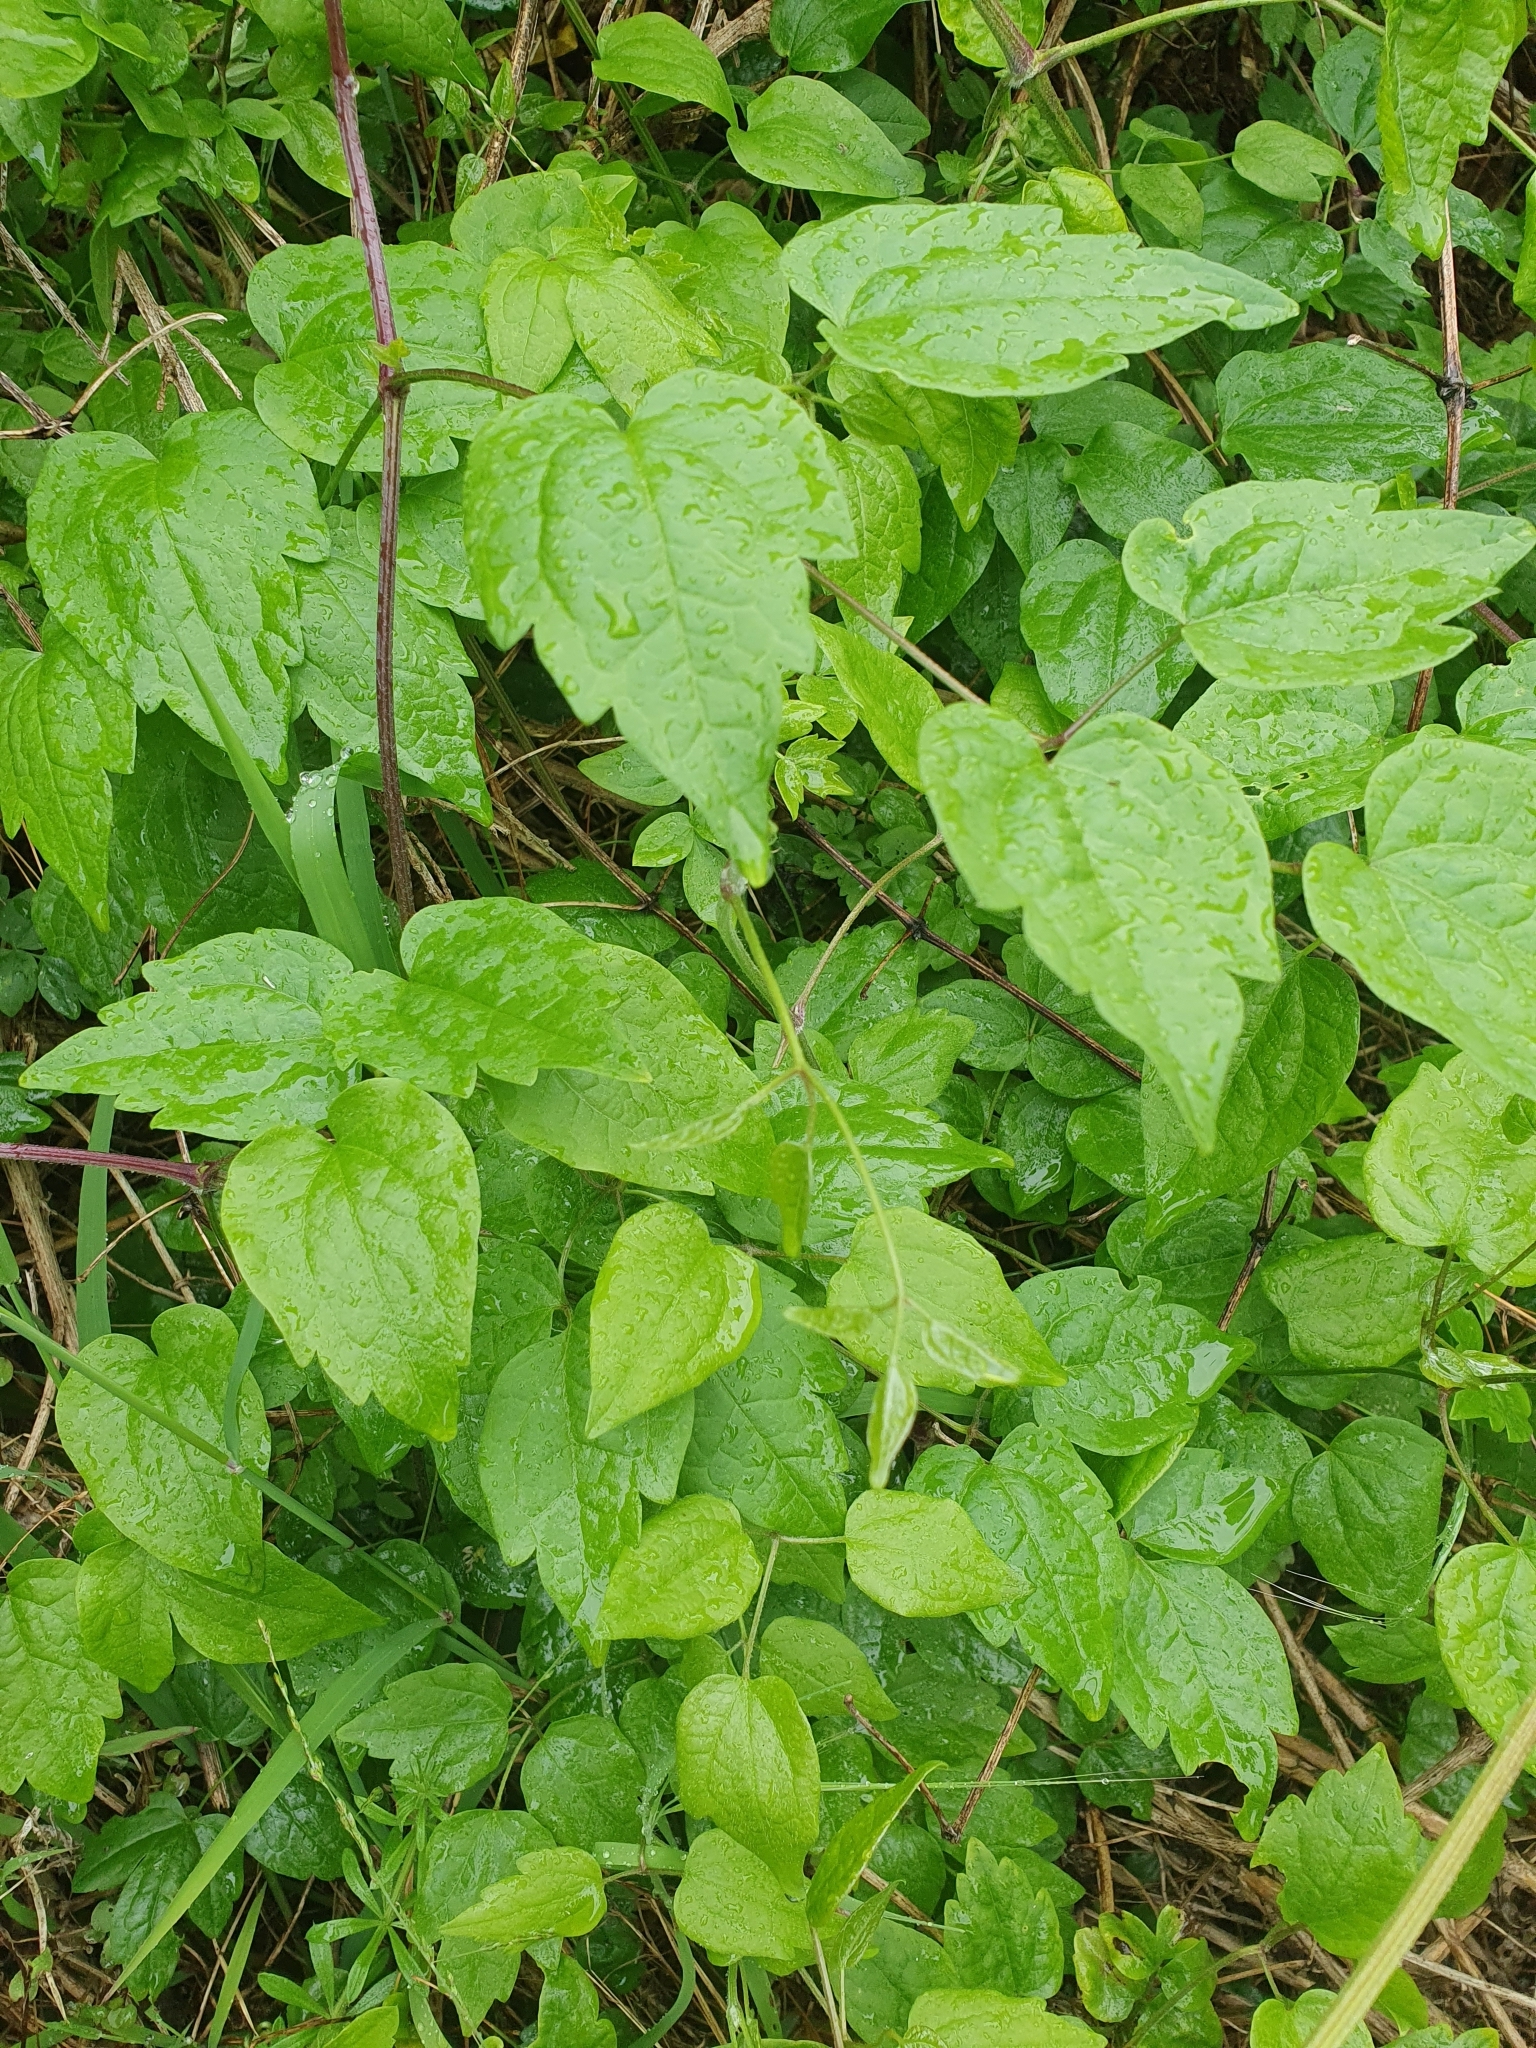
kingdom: Plantae
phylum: Tracheophyta
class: Magnoliopsida
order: Ranunculales
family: Ranunculaceae
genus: Clematis
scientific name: Clematis vitalba
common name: Evergreen clematis
